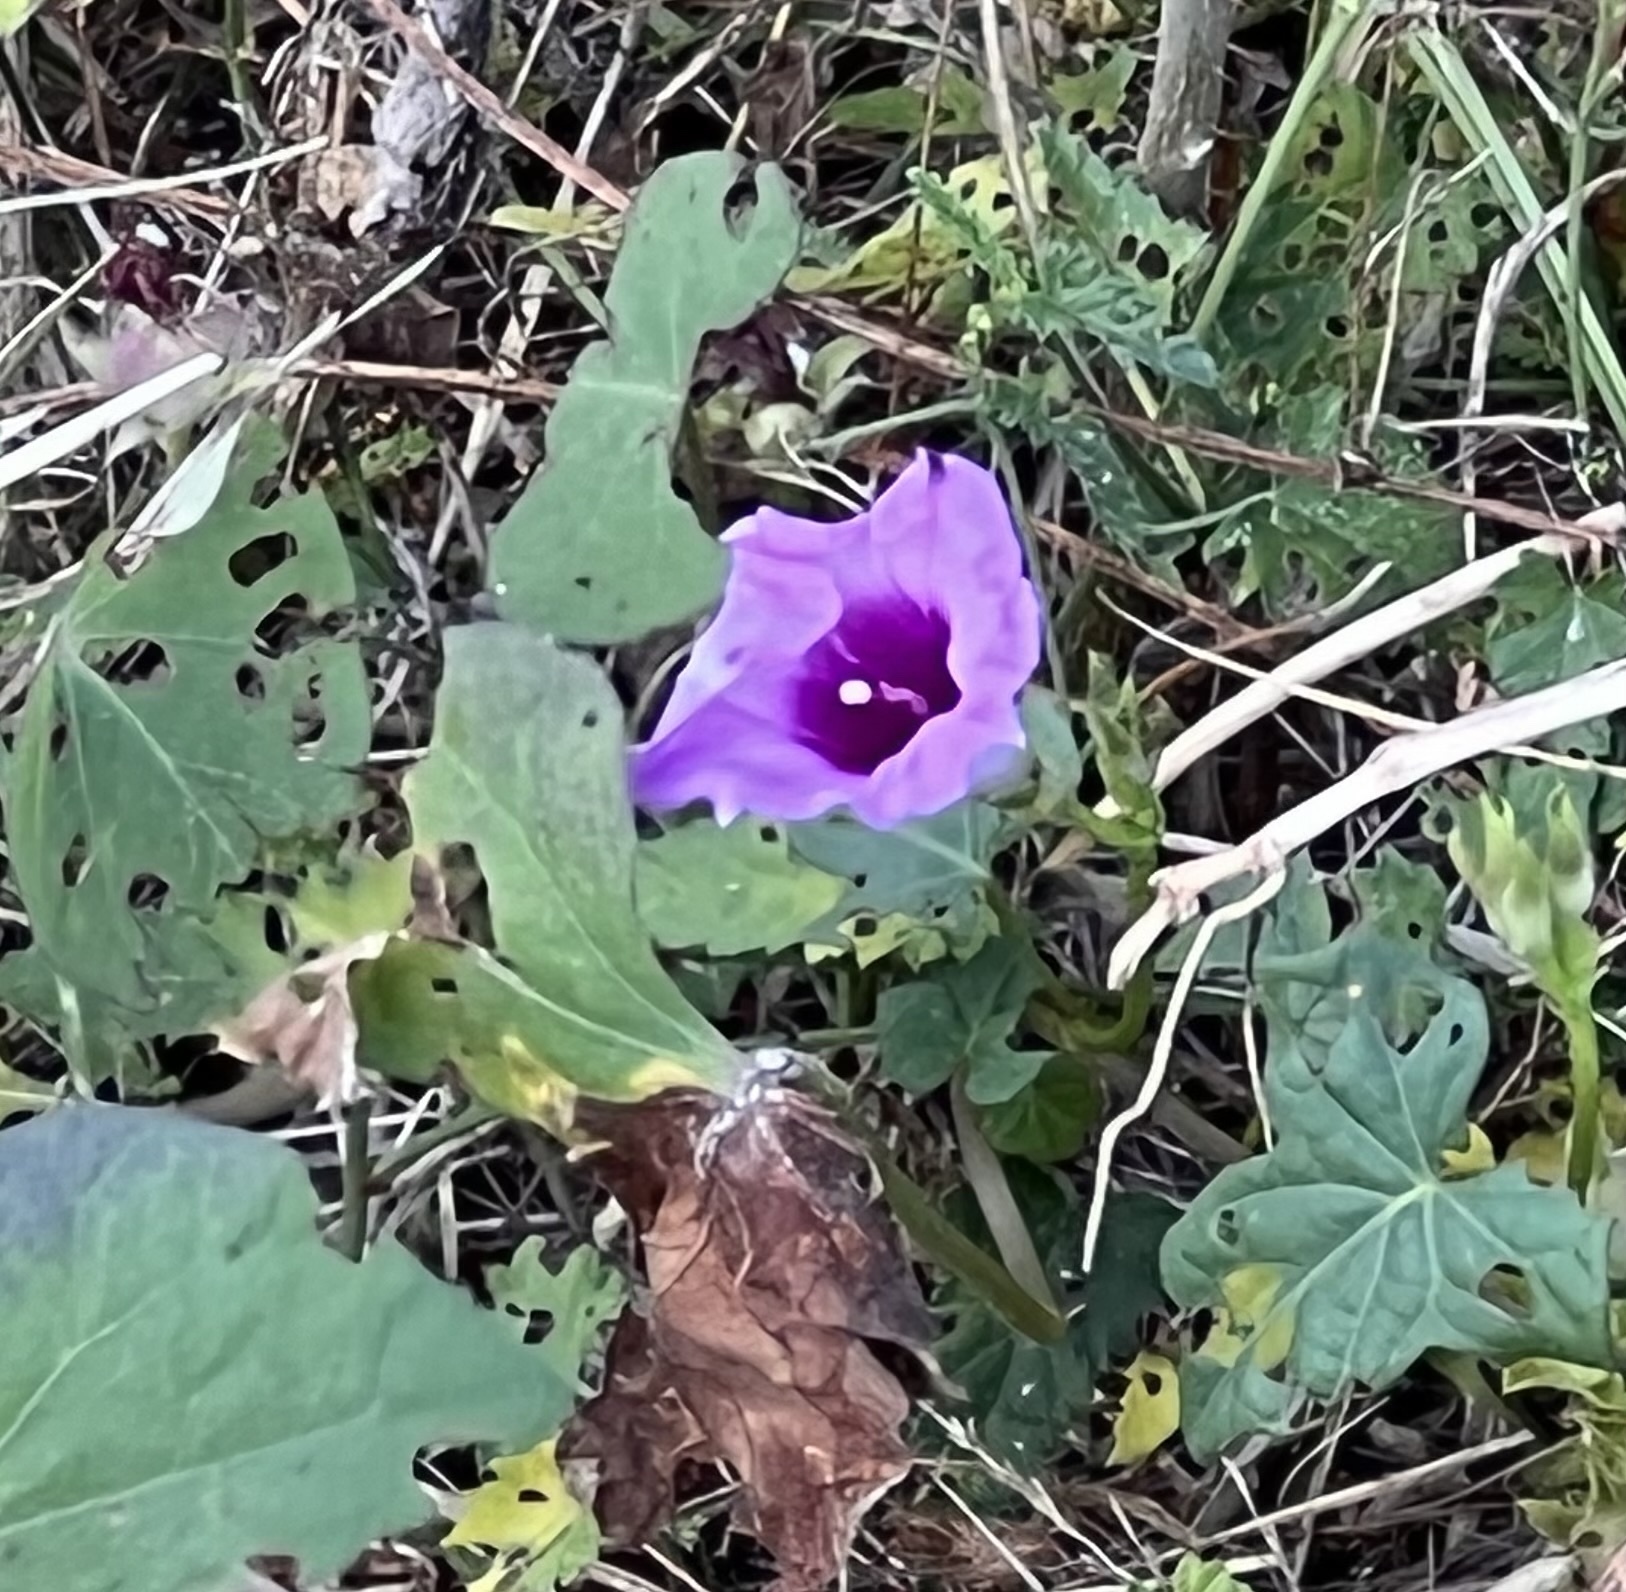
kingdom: Plantae
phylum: Tracheophyta
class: Magnoliopsida
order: Solanales
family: Convolvulaceae
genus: Ipomoea
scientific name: Ipomoea cordatotriloba
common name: Cotton morning glory
